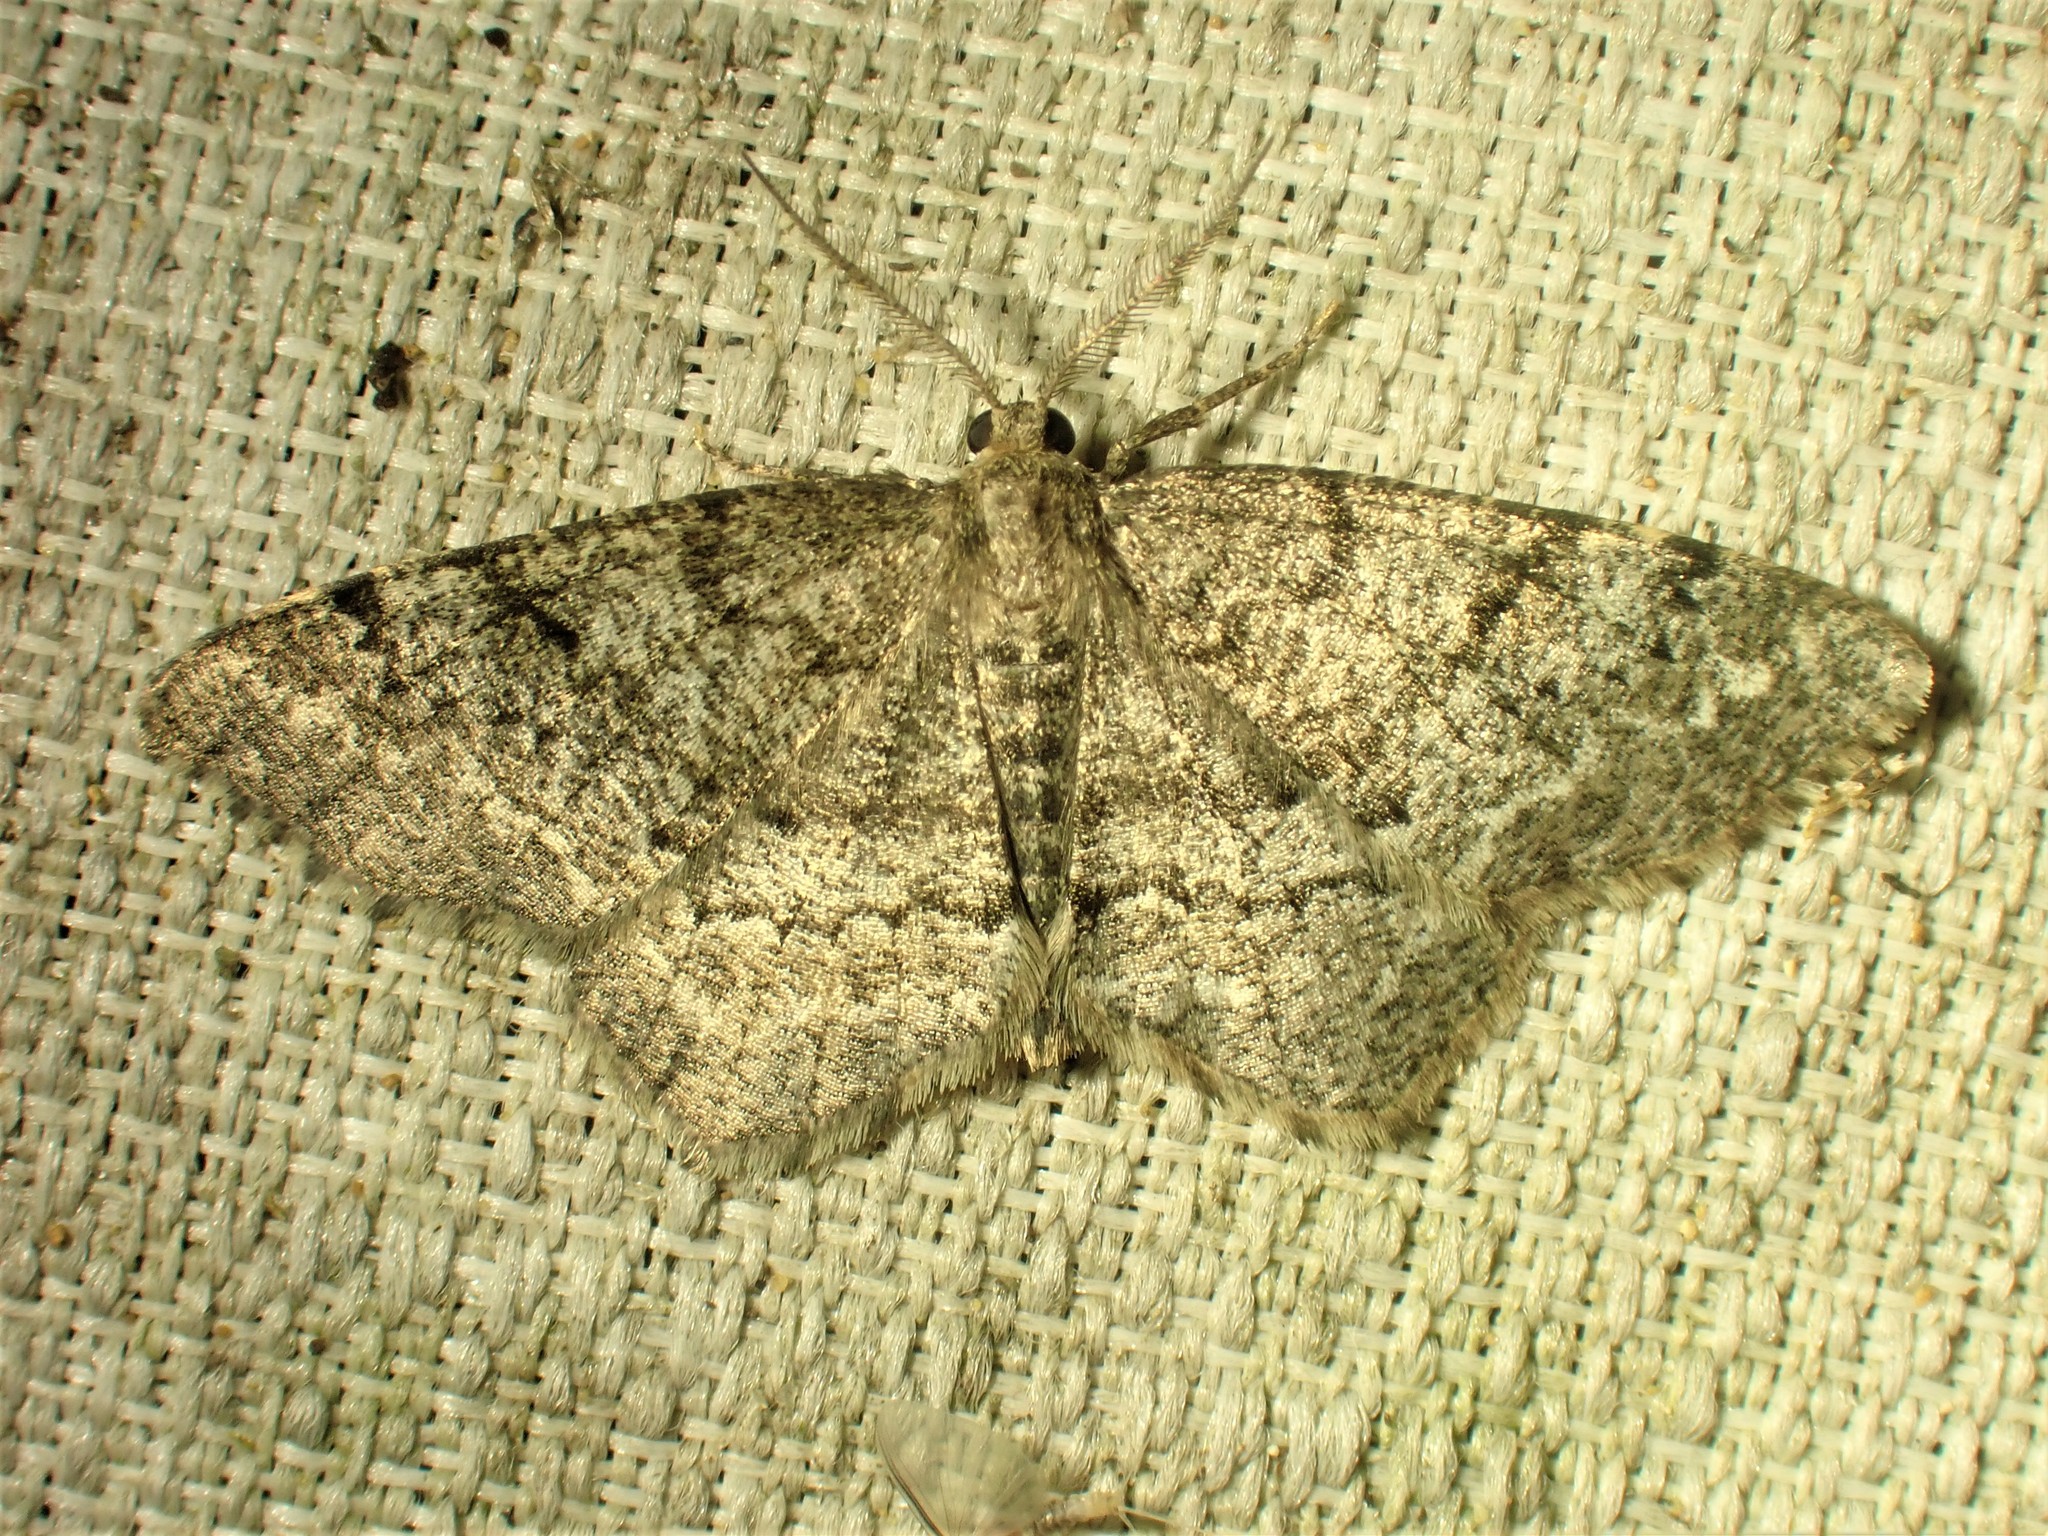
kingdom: Animalia
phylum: Arthropoda
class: Insecta
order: Lepidoptera
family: Geometridae
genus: Hypagyrtis
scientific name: Hypagyrtis piniata
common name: Pine measuringworm
